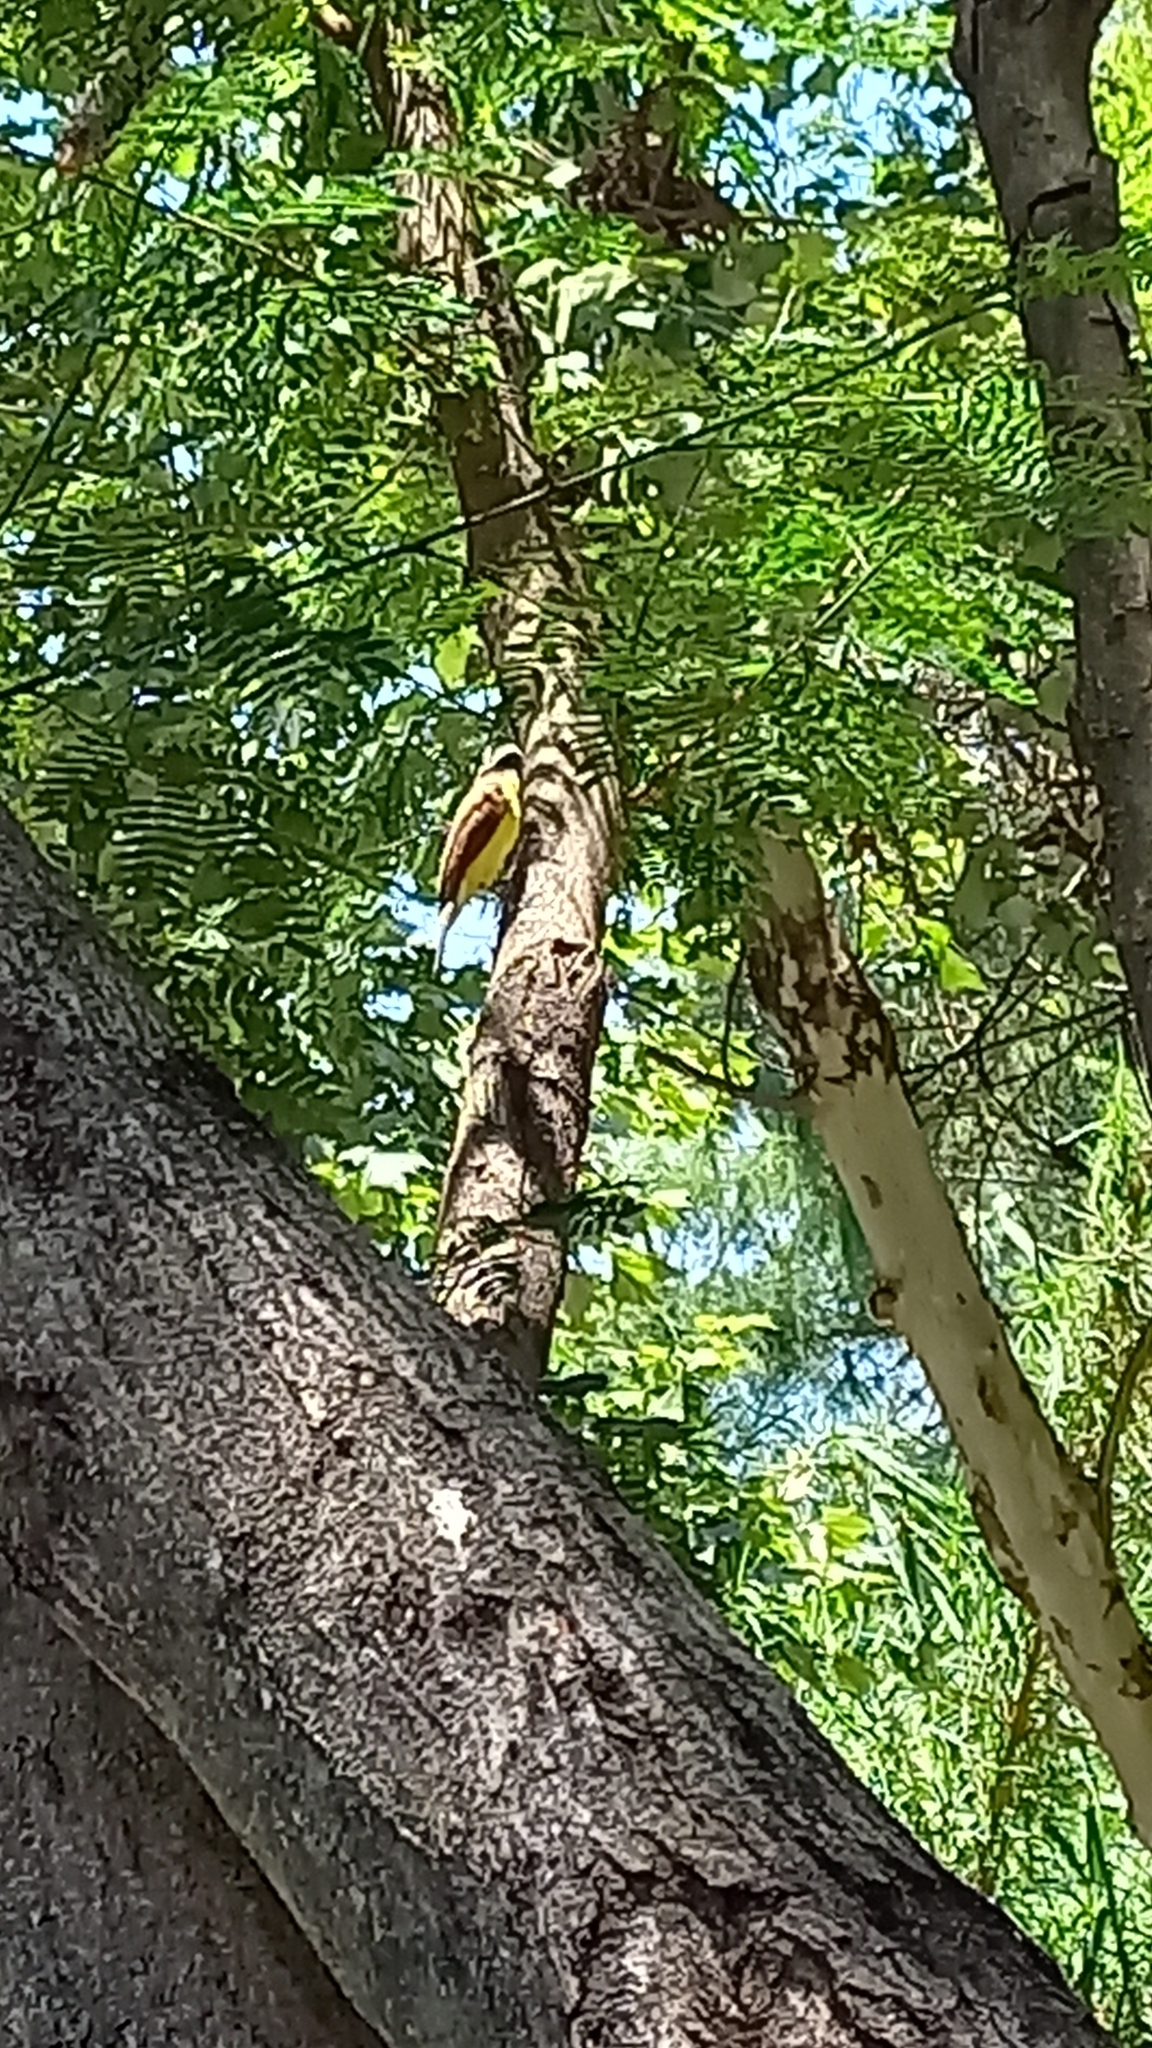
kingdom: Animalia
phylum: Chordata
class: Aves
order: Passeriformes
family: Tyrannidae
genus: Pitangus
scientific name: Pitangus sulphuratus
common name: Great kiskadee
